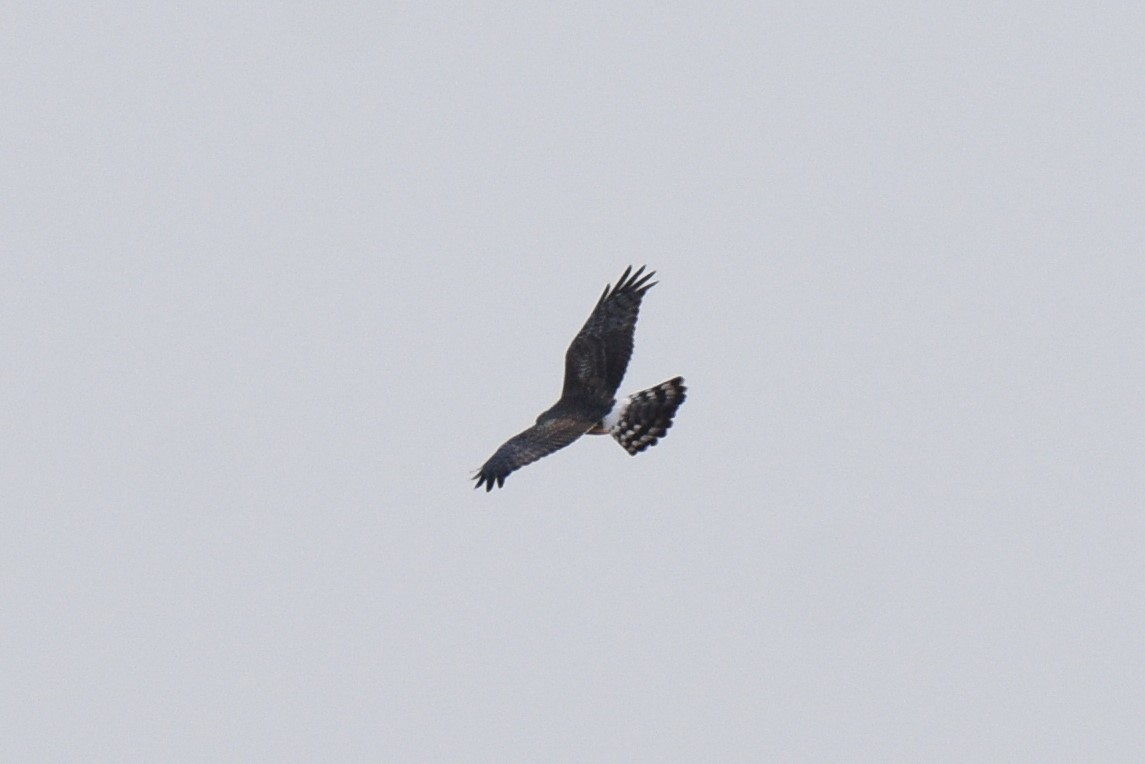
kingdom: Animalia
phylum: Chordata
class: Aves
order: Accipitriformes
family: Accipitridae
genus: Circus
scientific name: Circus cyaneus
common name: Hen harrier
